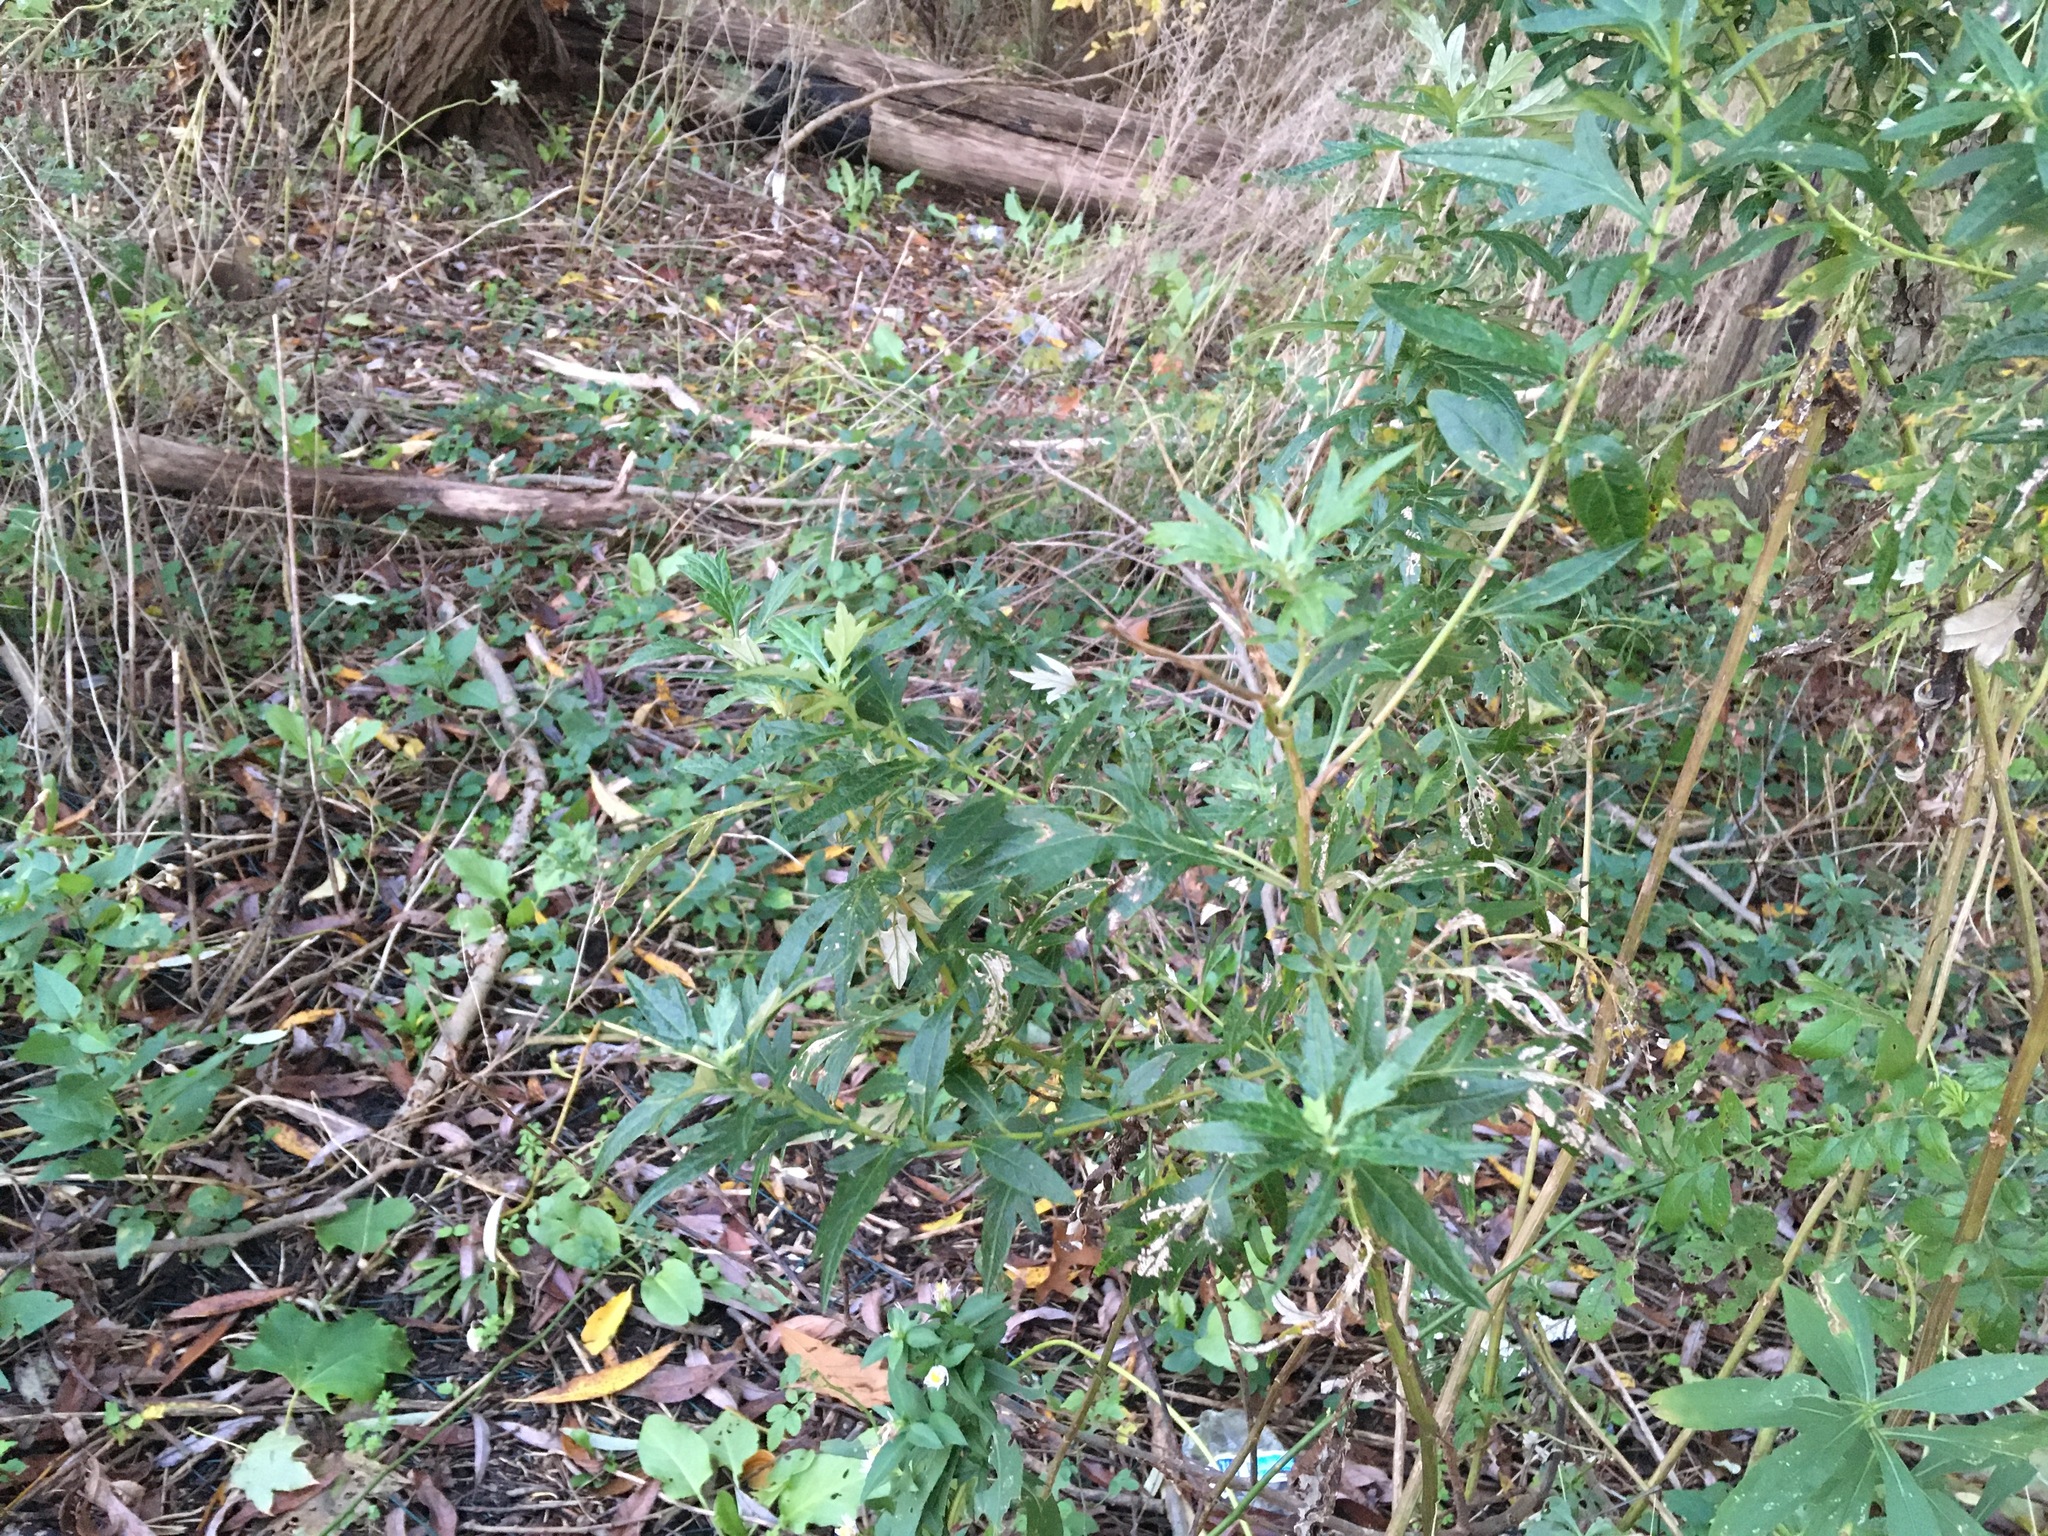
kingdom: Plantae
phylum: Tracheophyta
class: Magnoliopsida
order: Asterales
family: Asteraceae
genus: Artemisia
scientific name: Artemisia vulgaris
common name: Mugwort
